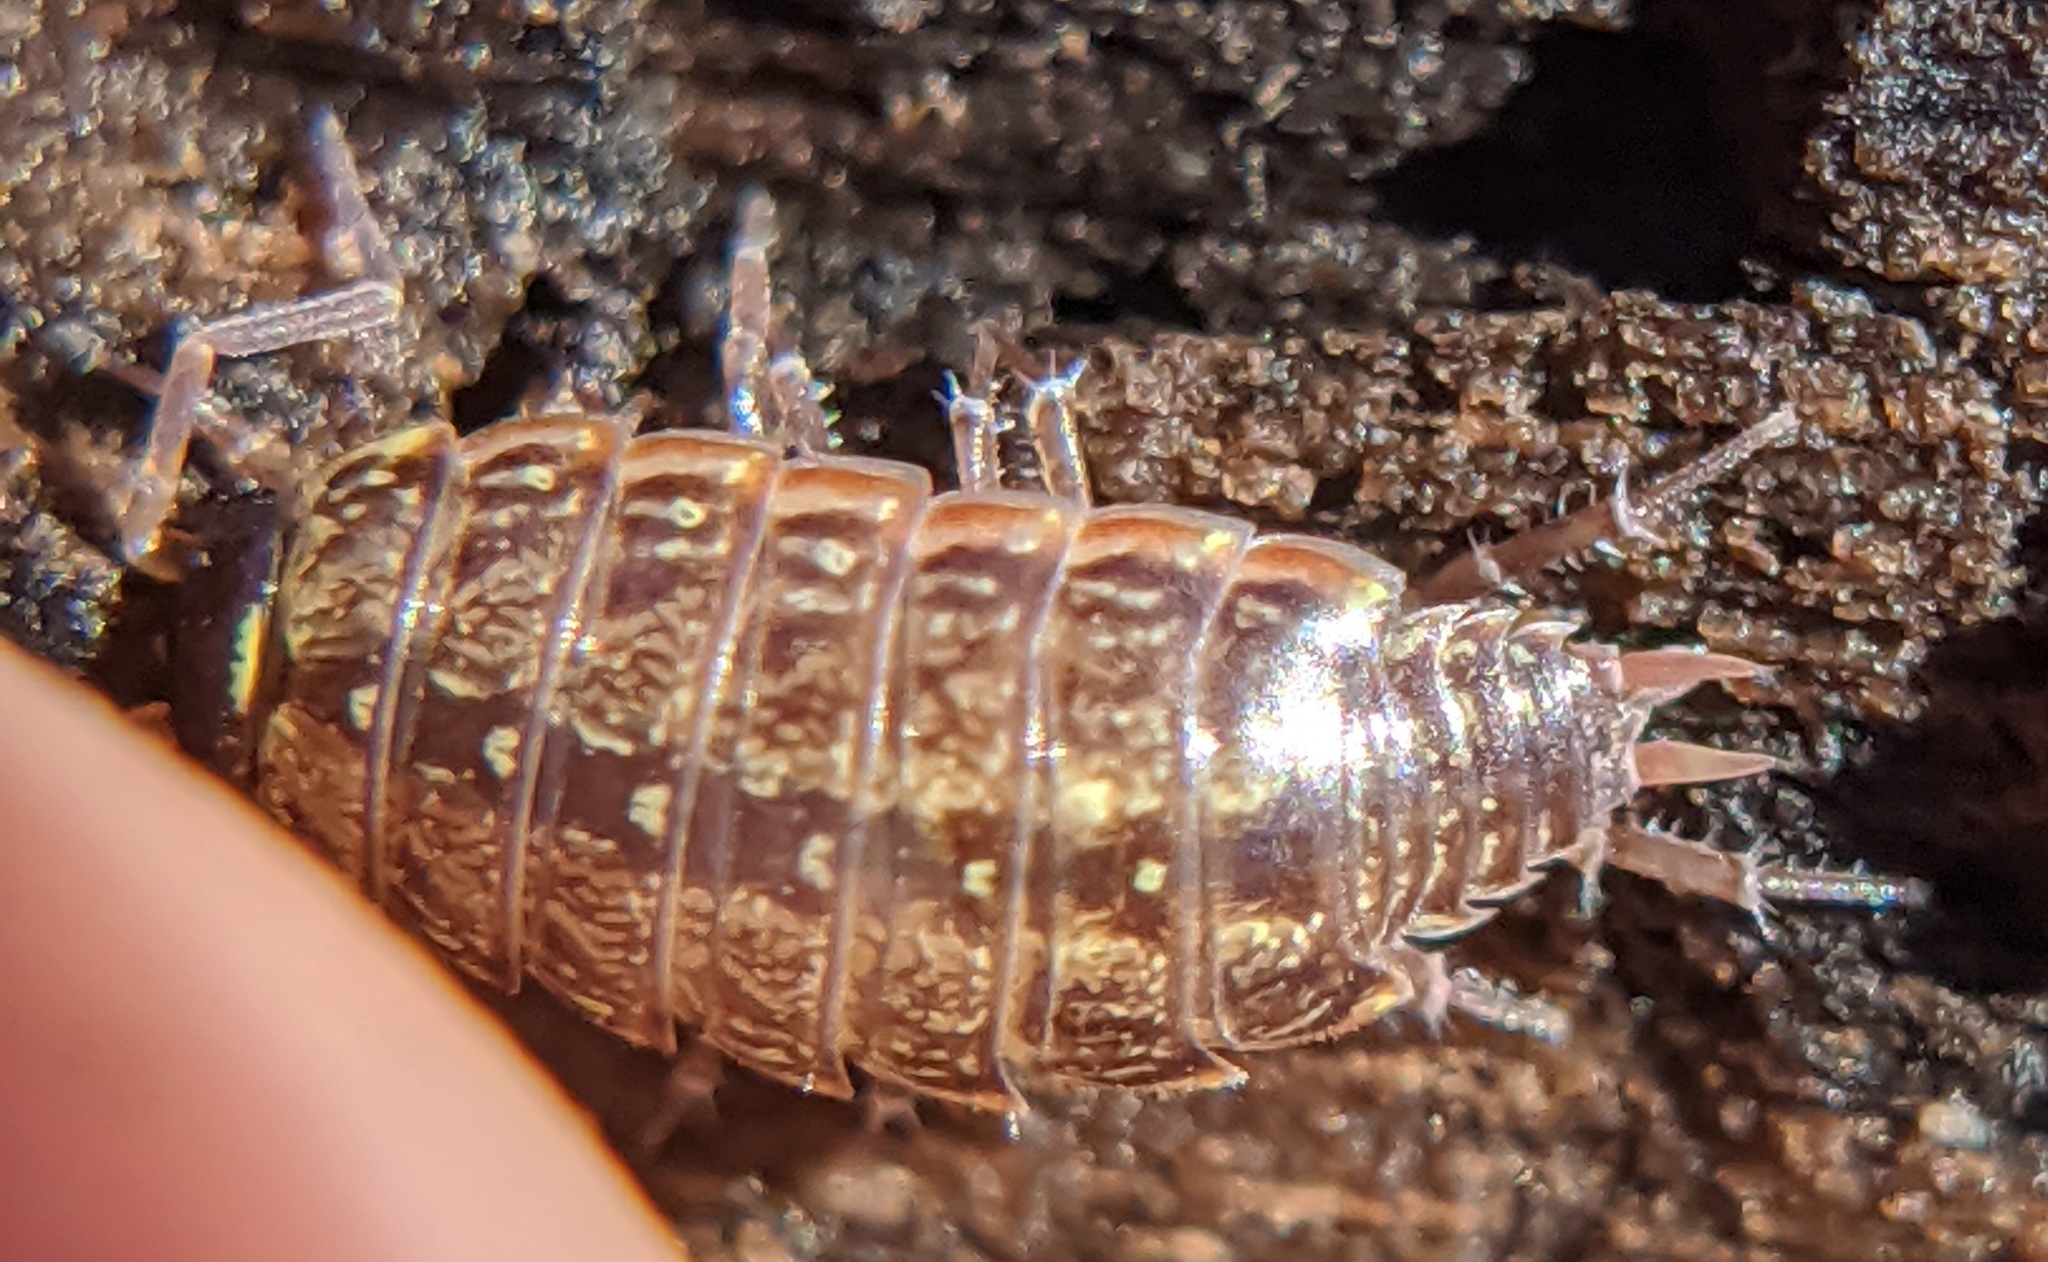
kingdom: Animalia
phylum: Arthropoda
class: Malacostraca
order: Isopoda
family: Philosciidae
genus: Philoscia
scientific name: Philoscia muscorum
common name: Common striped woodlouse
